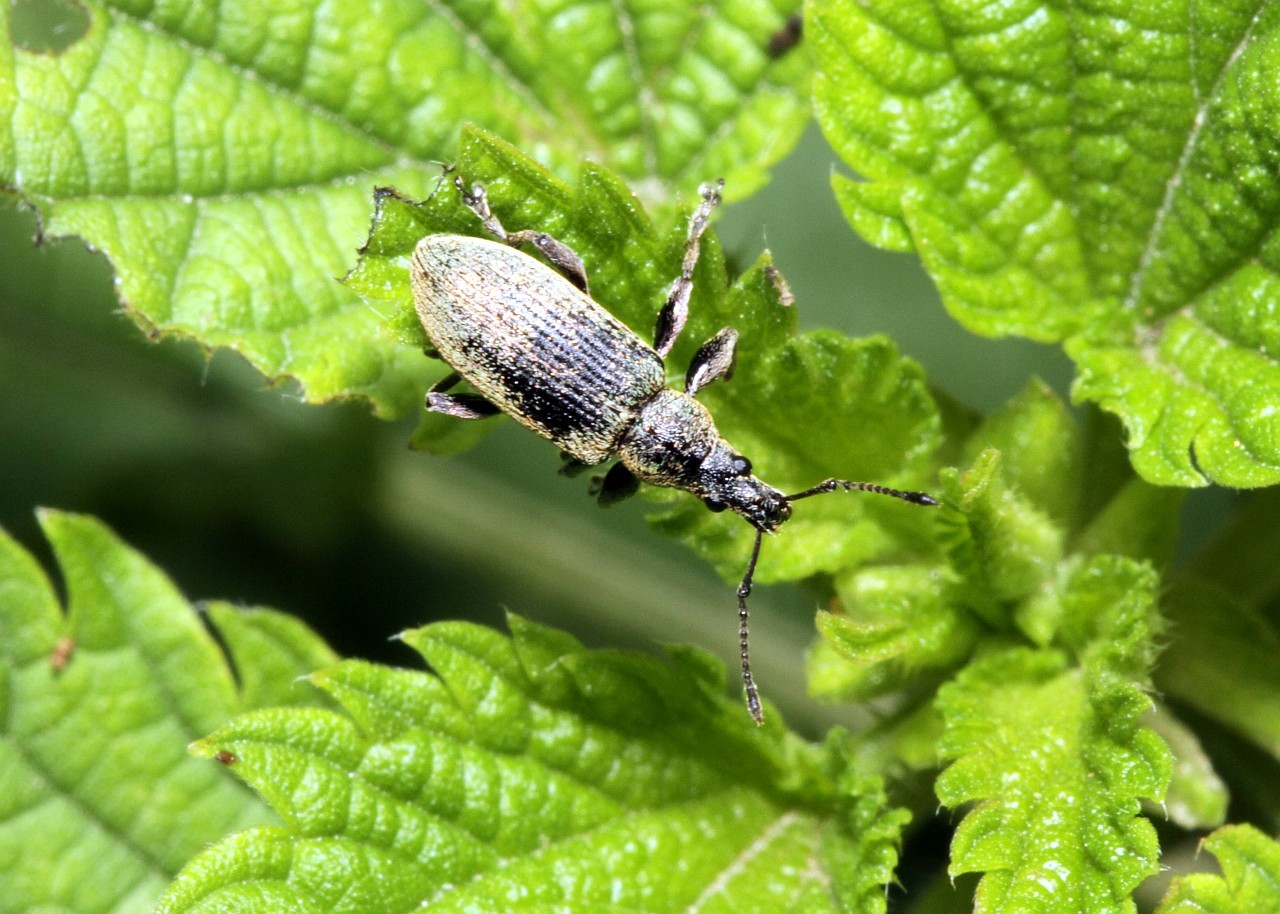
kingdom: Animalia
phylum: Arthropoda
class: Insecta
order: Coleoptera
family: Curculionidae
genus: Phyllobius
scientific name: Phyllobius pomaceus
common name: Green nettle weevil
